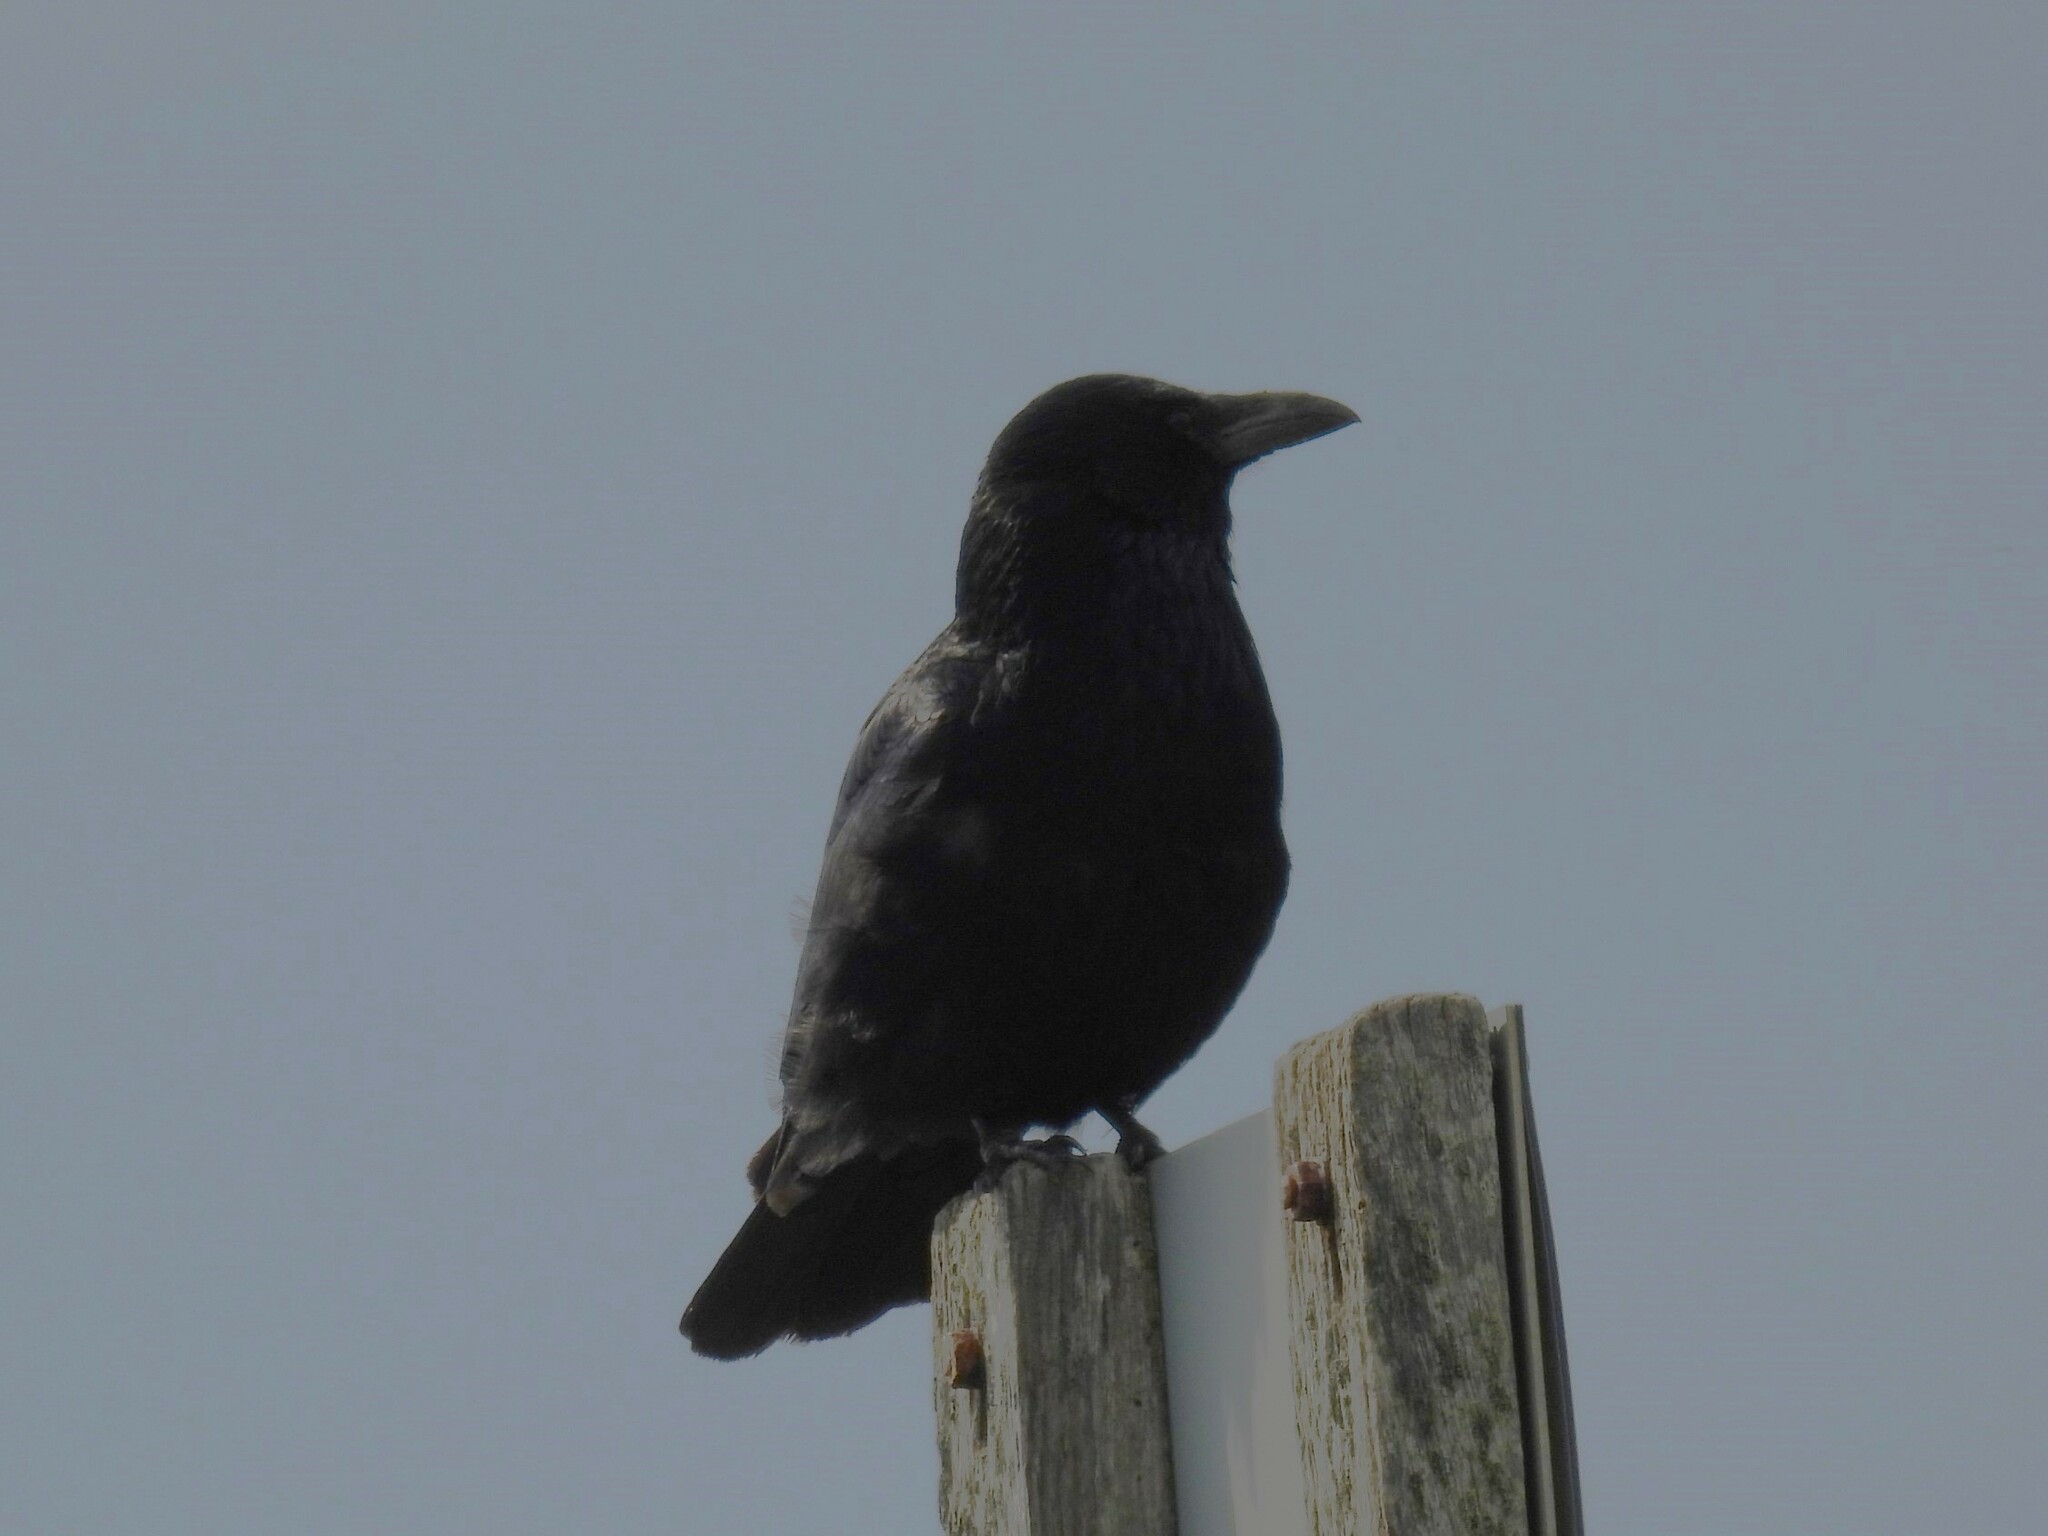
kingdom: Animalia
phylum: Chordata
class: Aves
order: Passeriformes
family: Corvidae
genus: Corvus
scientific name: Corvus corone
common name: Carrion crow
